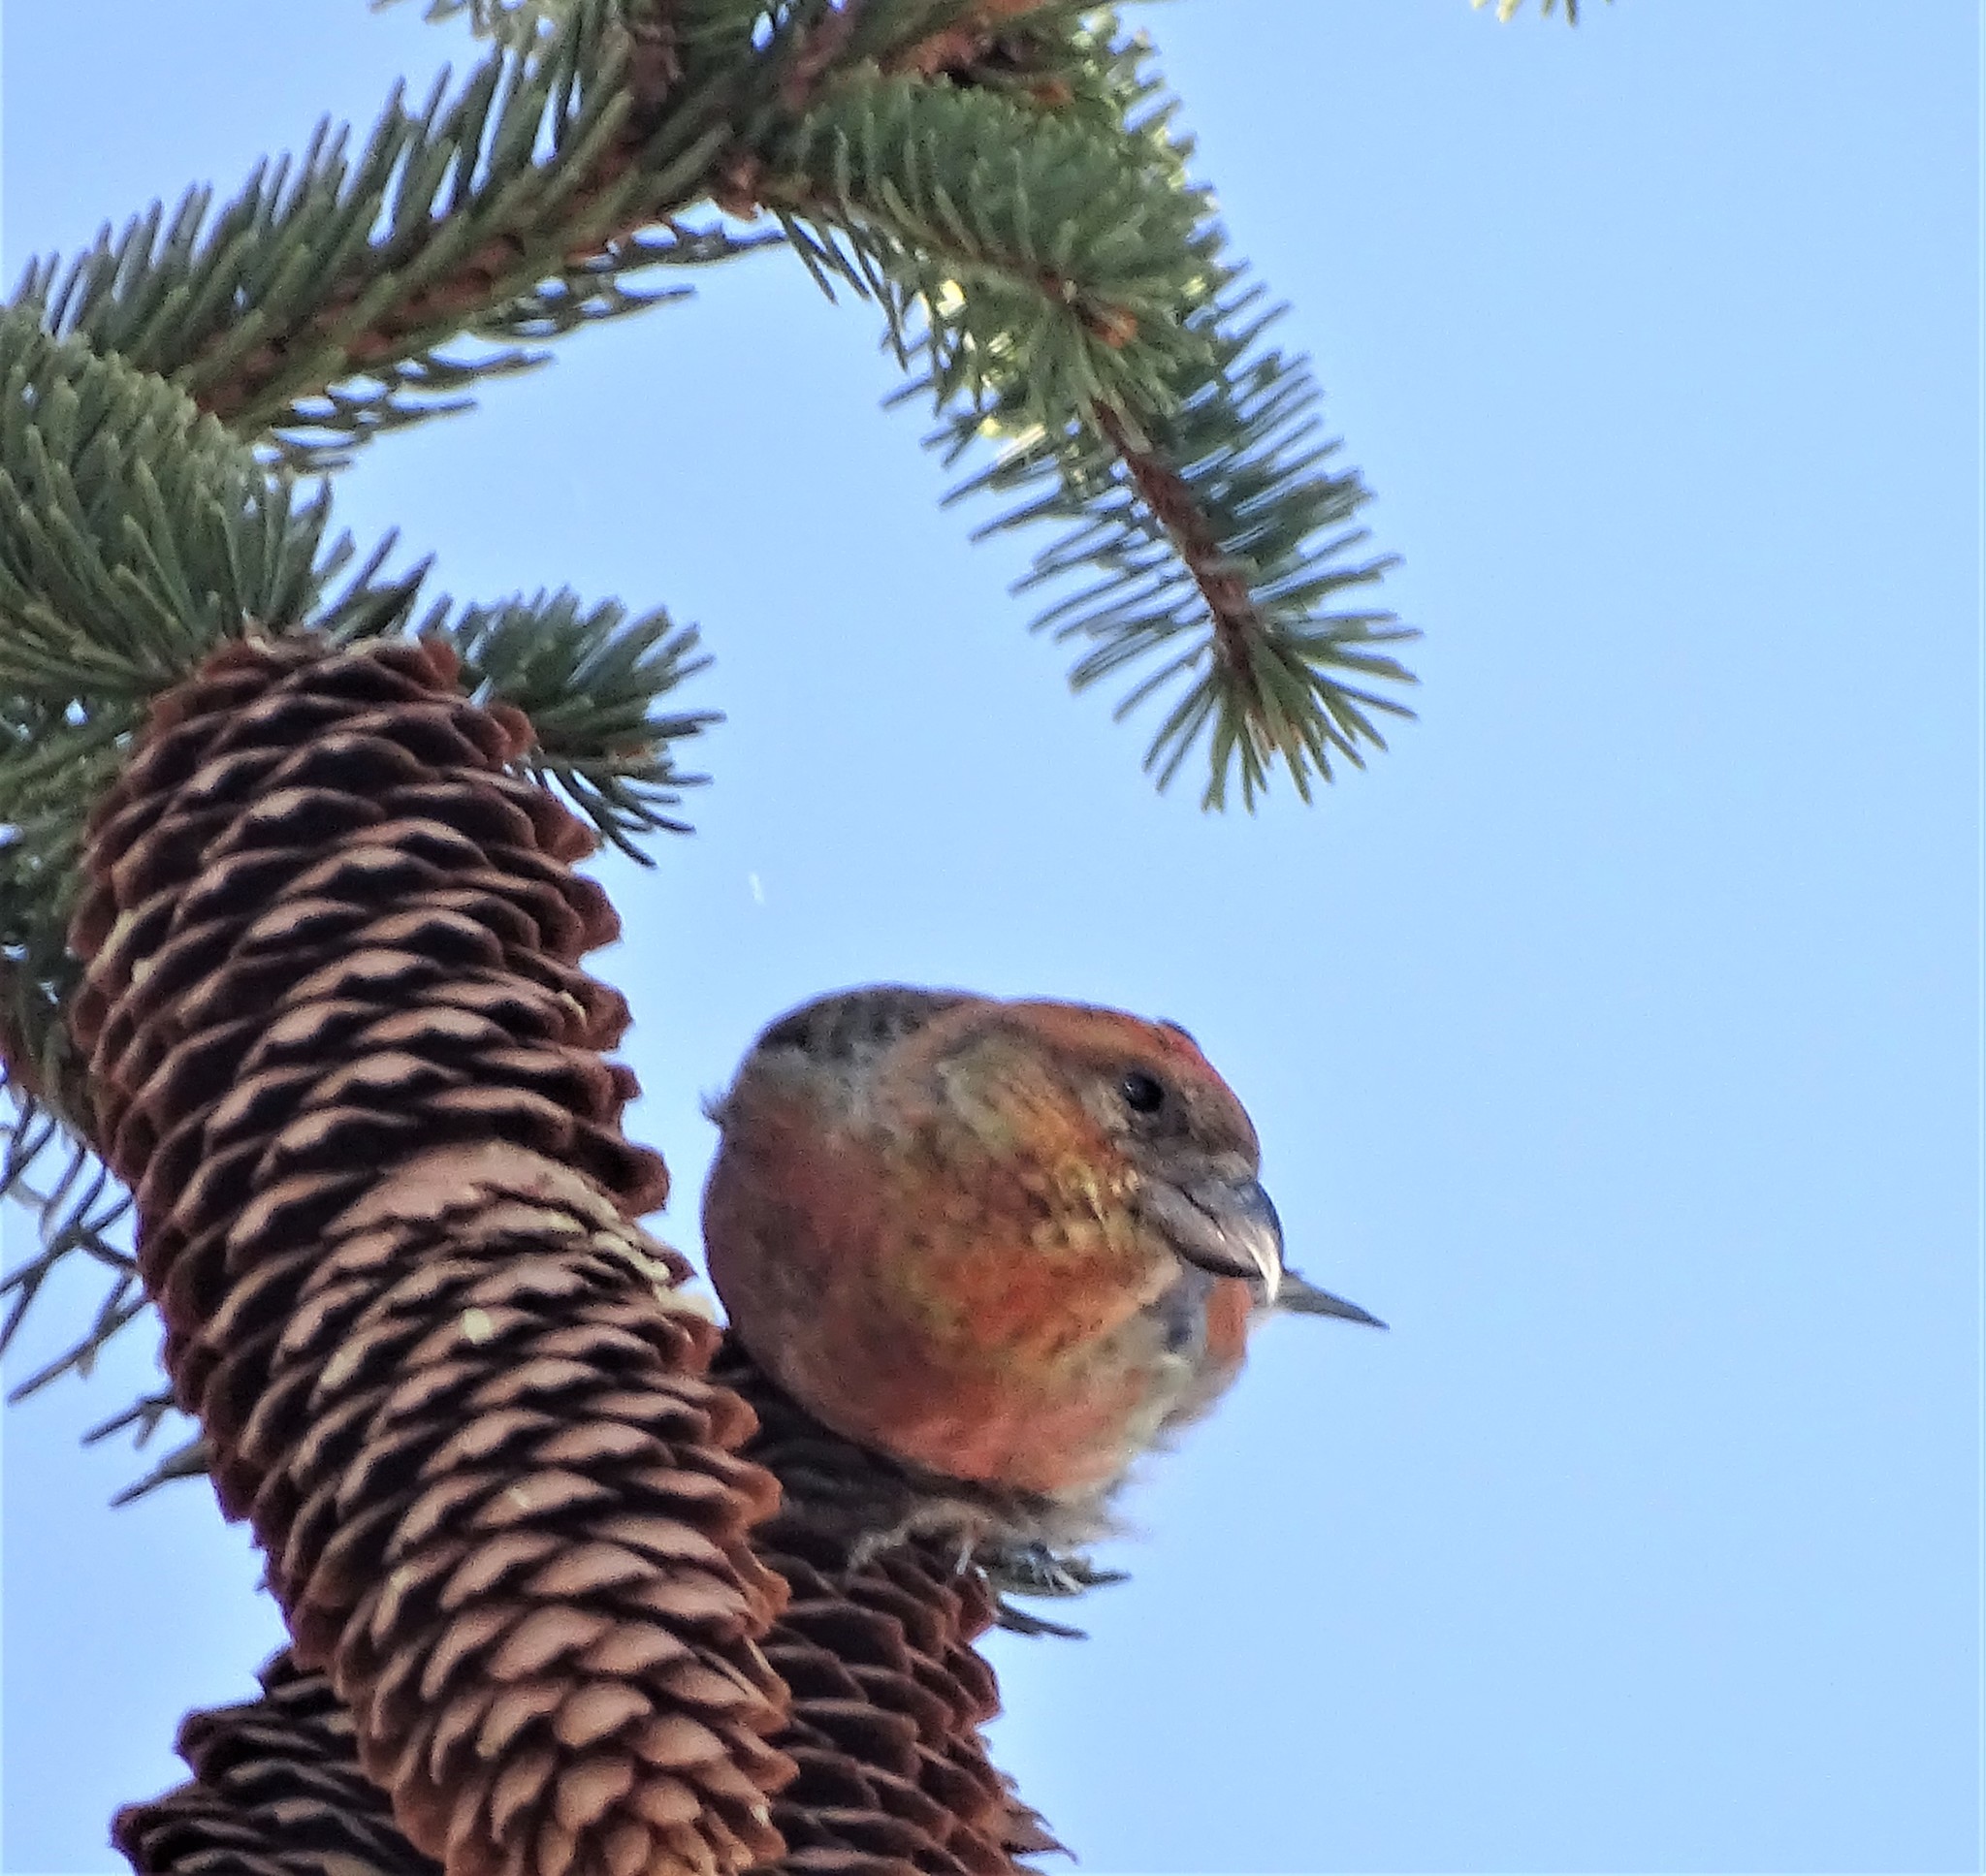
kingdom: Animalia
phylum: Chordata
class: Aves
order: Passeriformes
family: Fringillidae
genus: Loxia
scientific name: Loxia curvirostra
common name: Red crossbill
